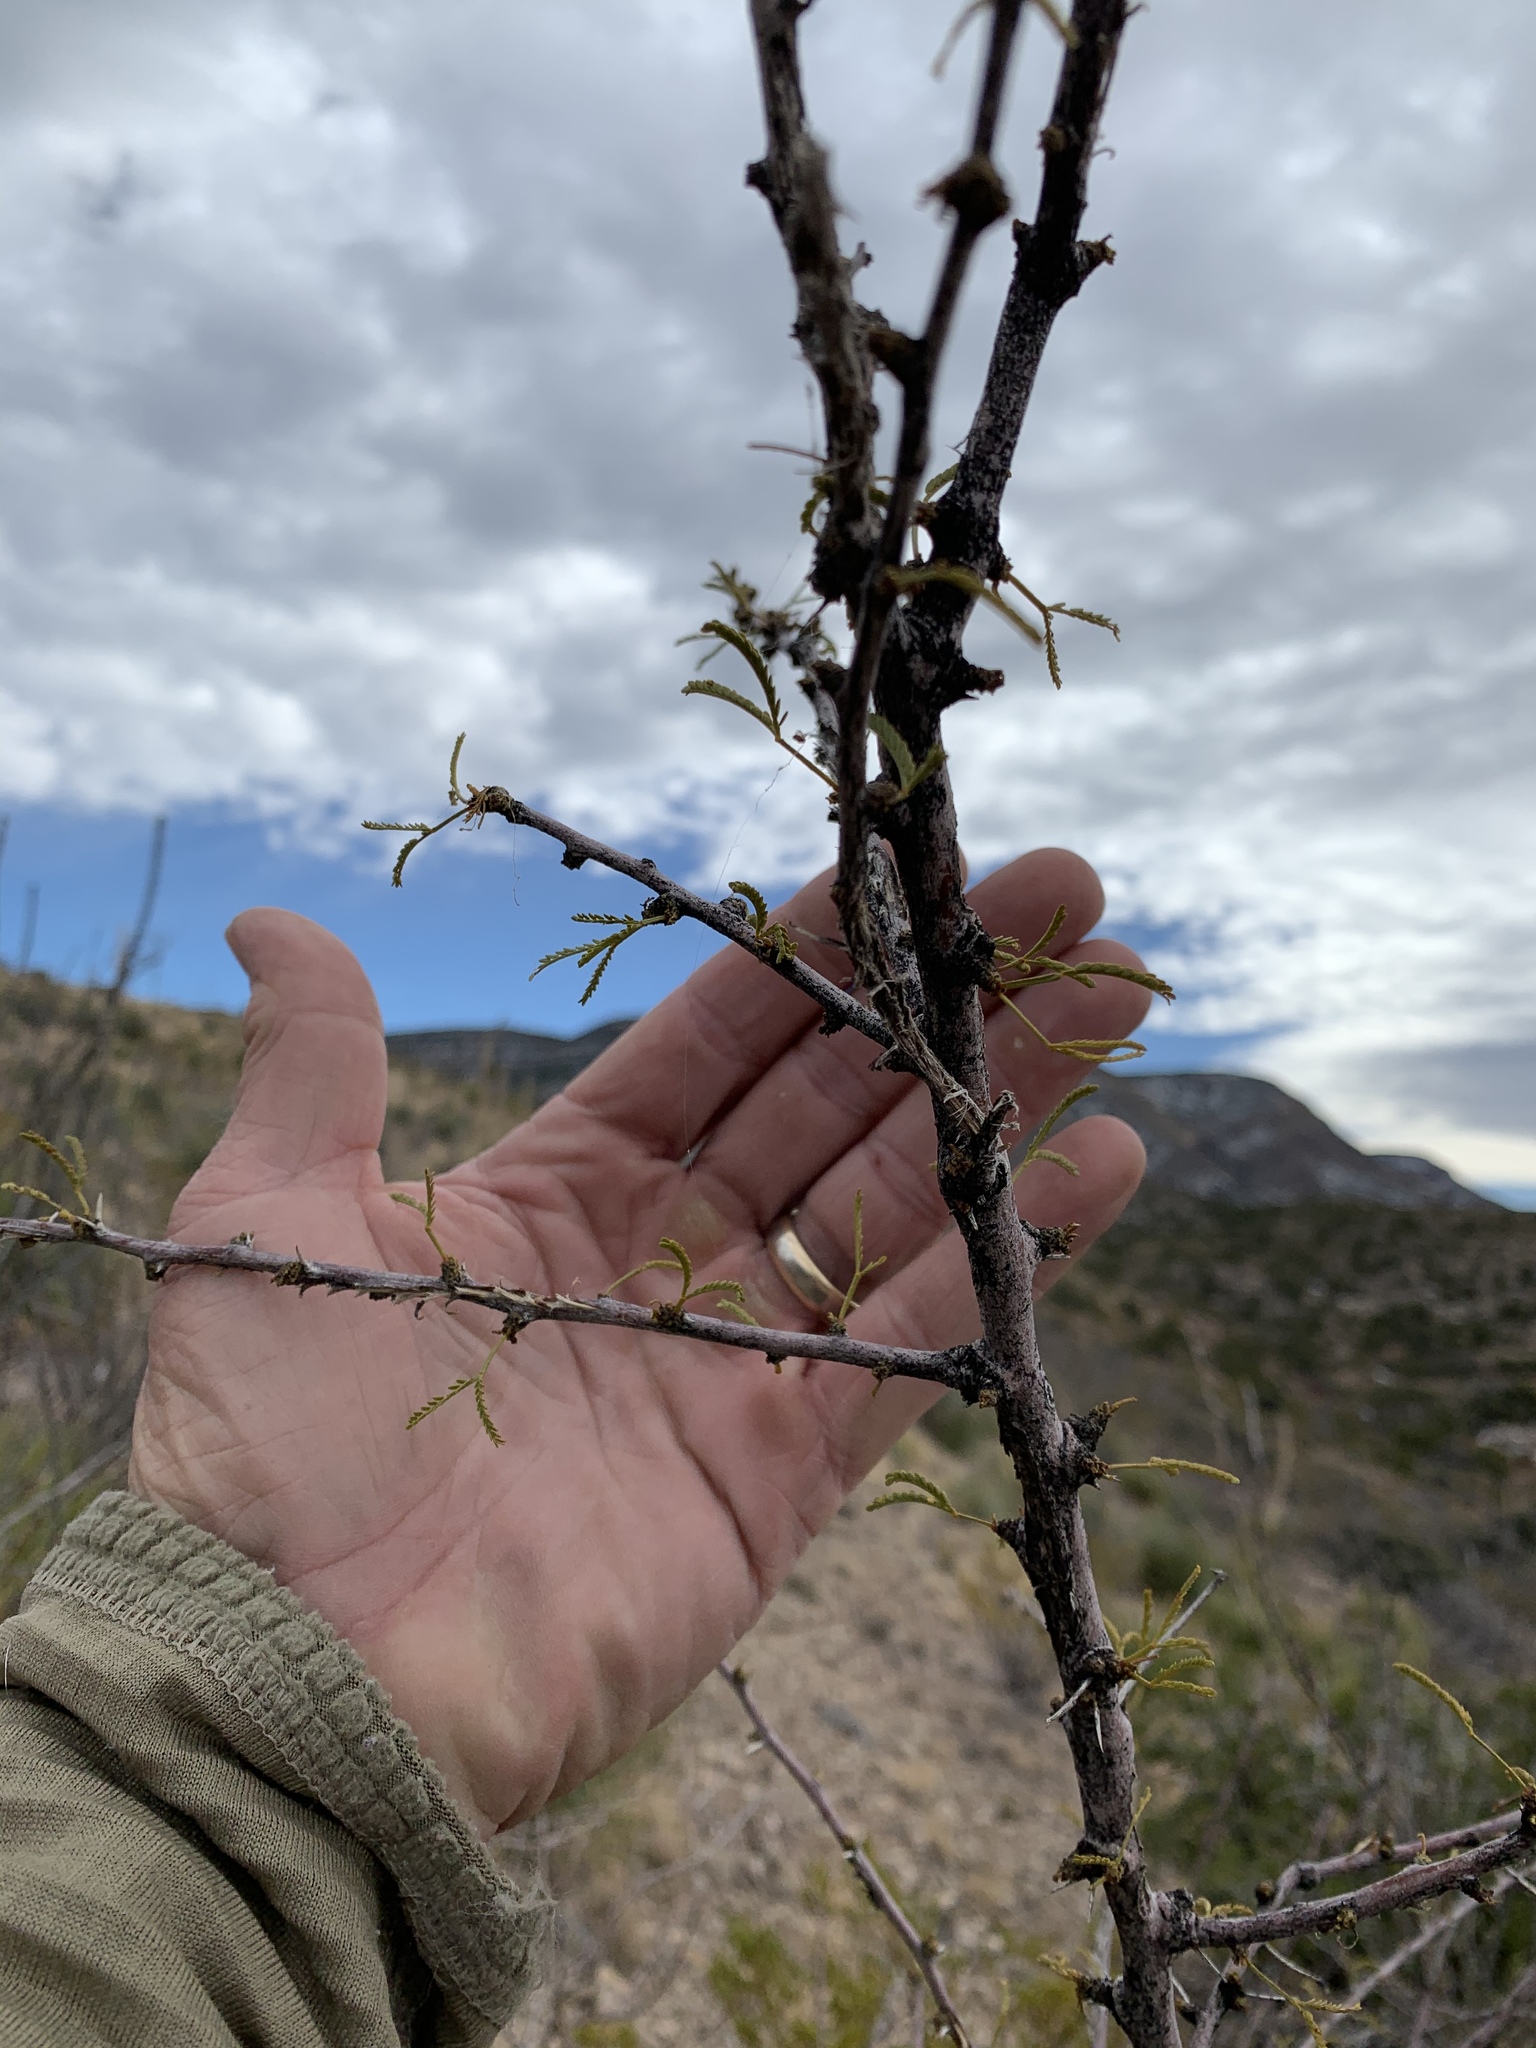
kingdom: Plantae
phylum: Tracheophyta
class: Magnoliopsida
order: Fabales
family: Fabaceae
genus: Vachellia
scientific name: Vachellia constricta
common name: Mescat acacia
